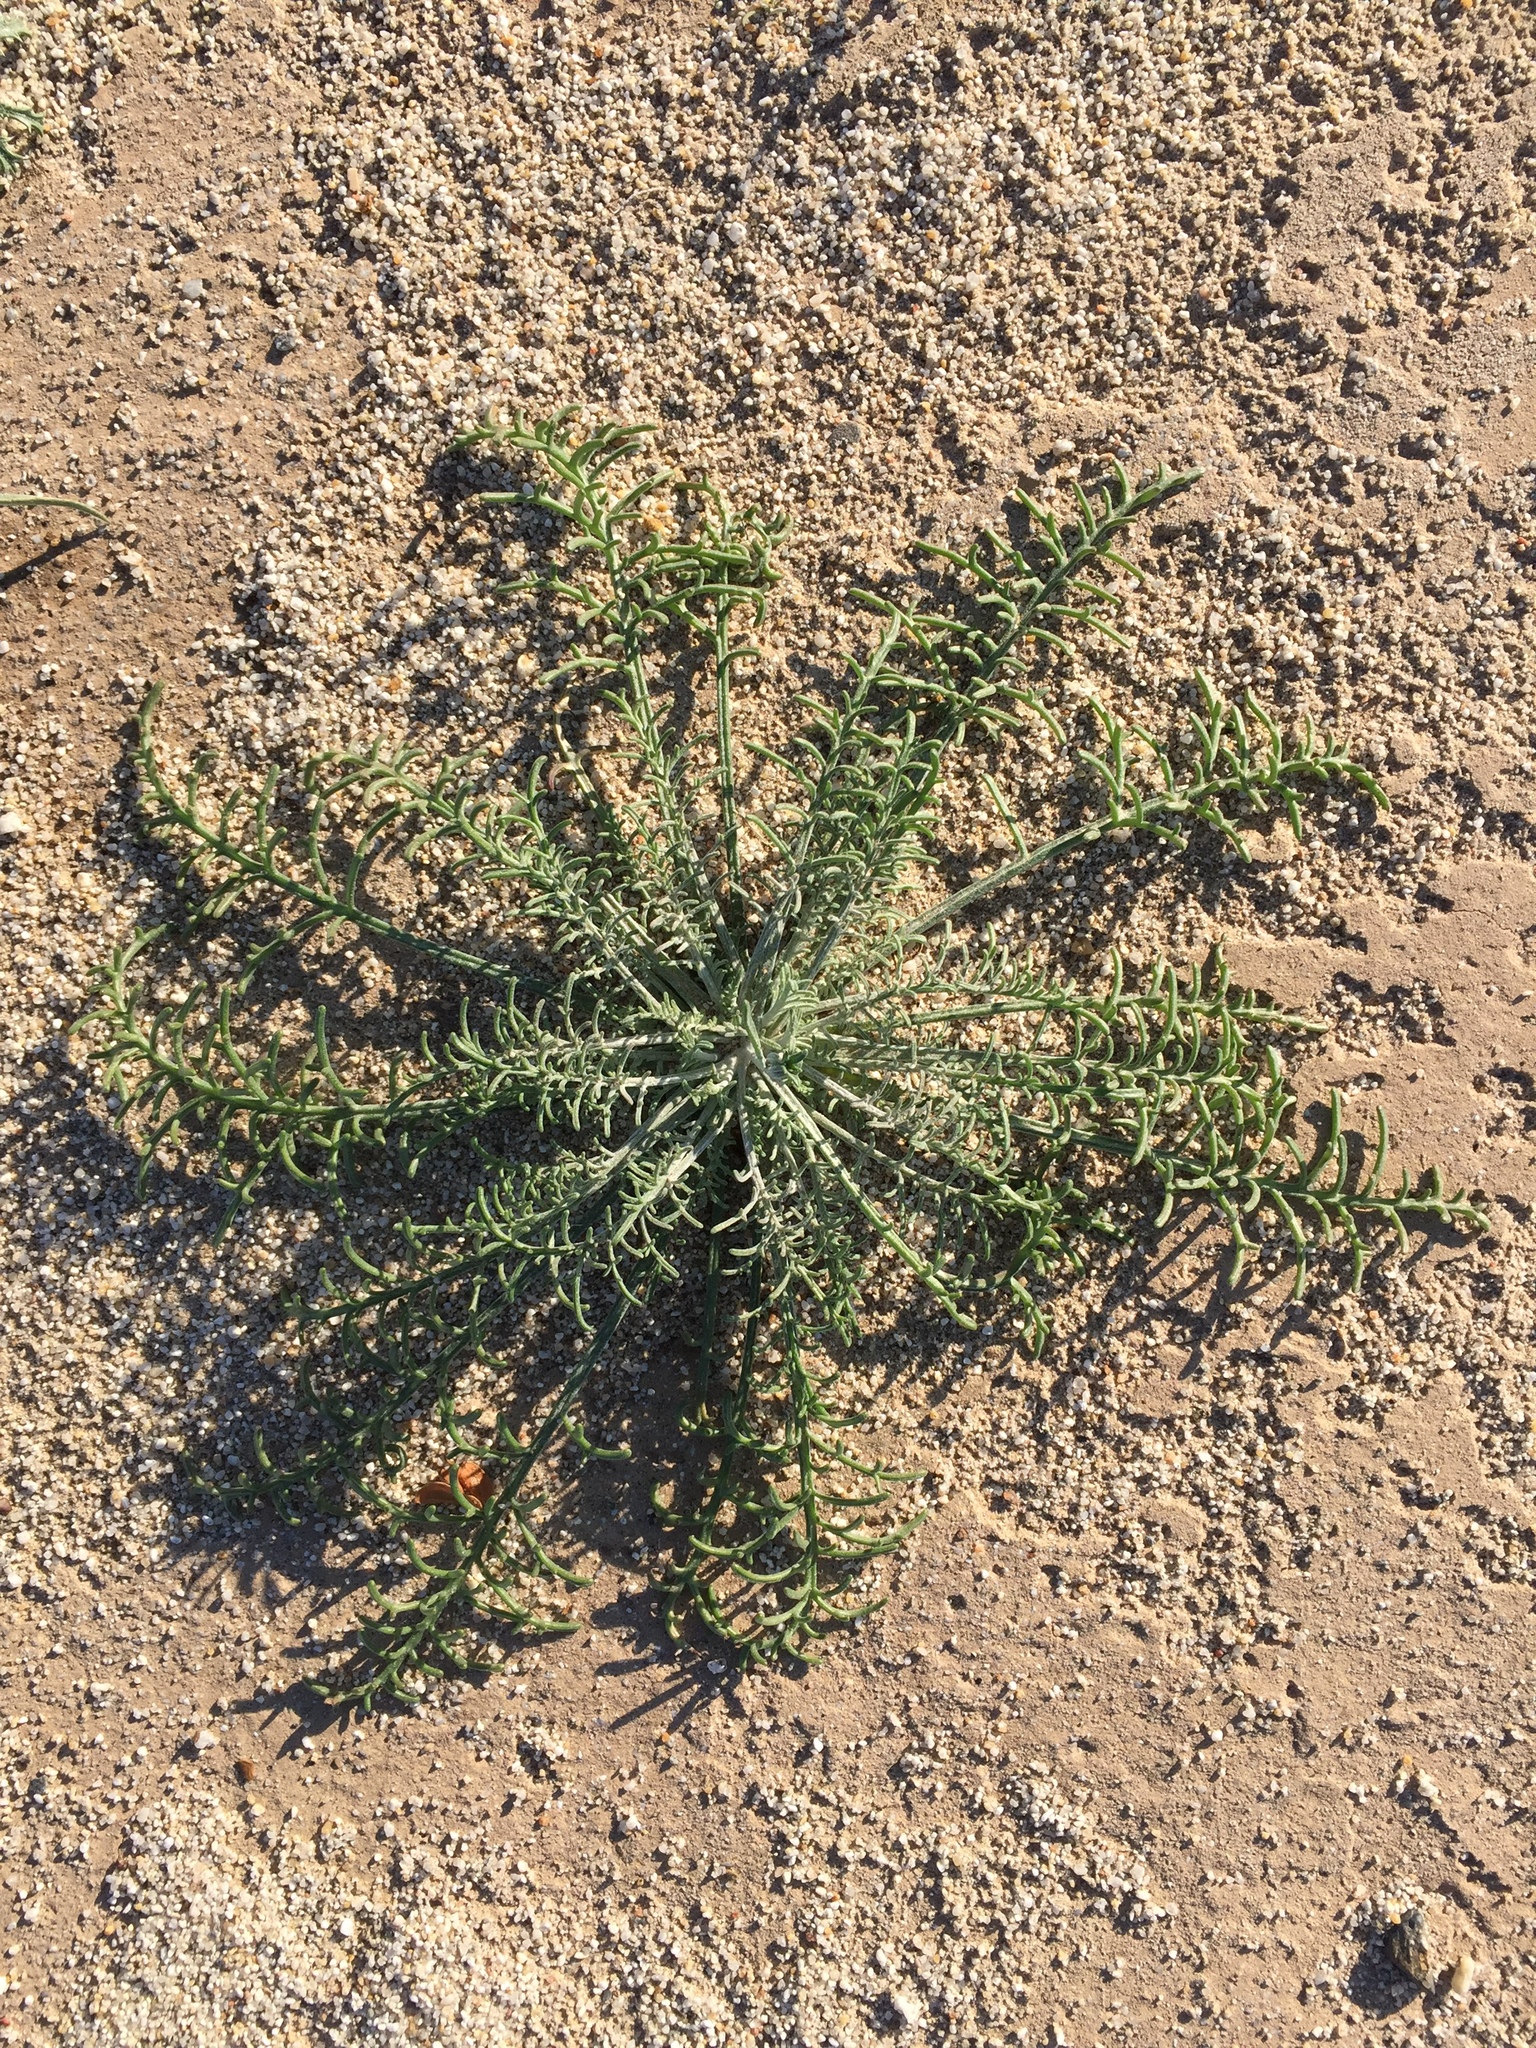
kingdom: Plantae
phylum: Tracheophyta
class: Magnoliopsida
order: Asterales
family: Asteraceae
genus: Chaenactis
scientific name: Chaenactis stevioides
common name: Desert pincushion
